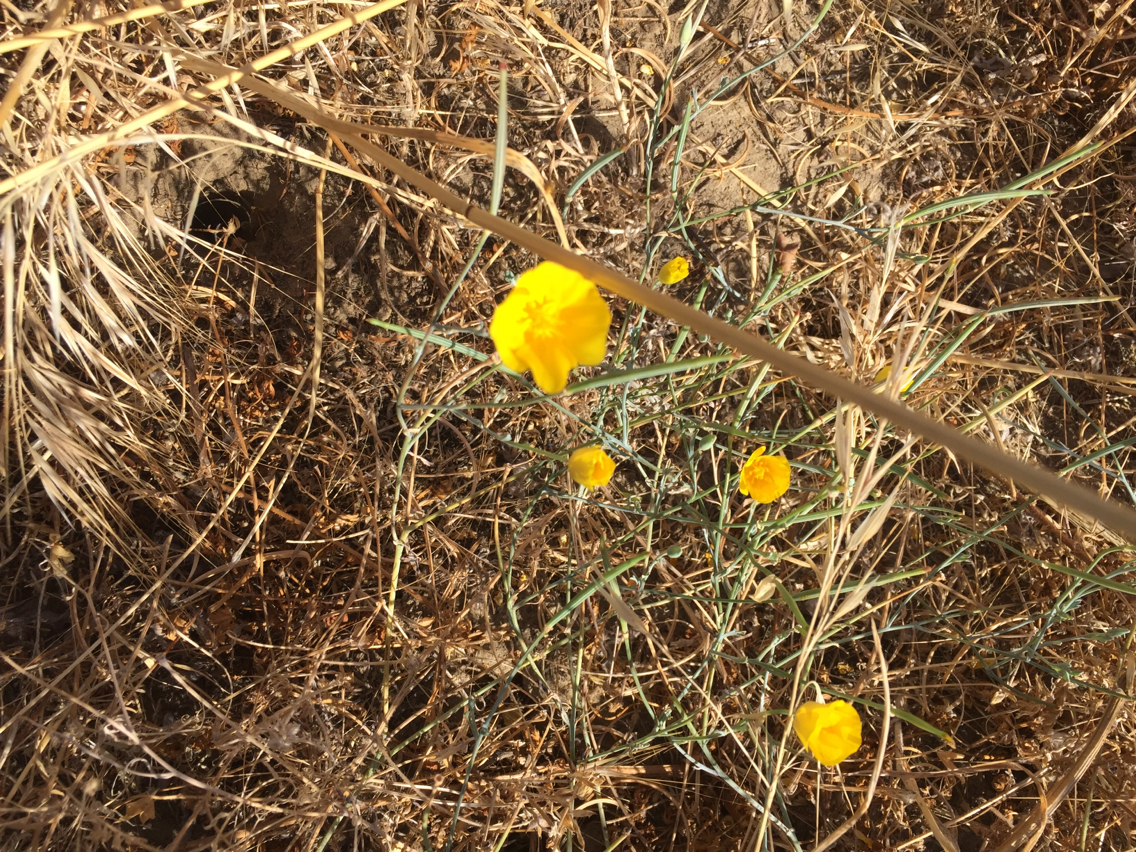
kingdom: Plantae
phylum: Tracheophyta
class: Magnoliopsida
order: Ranunculales
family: Papaveraceae
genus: Eschscholzia
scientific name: Eschscholzia californica
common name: California poppy
